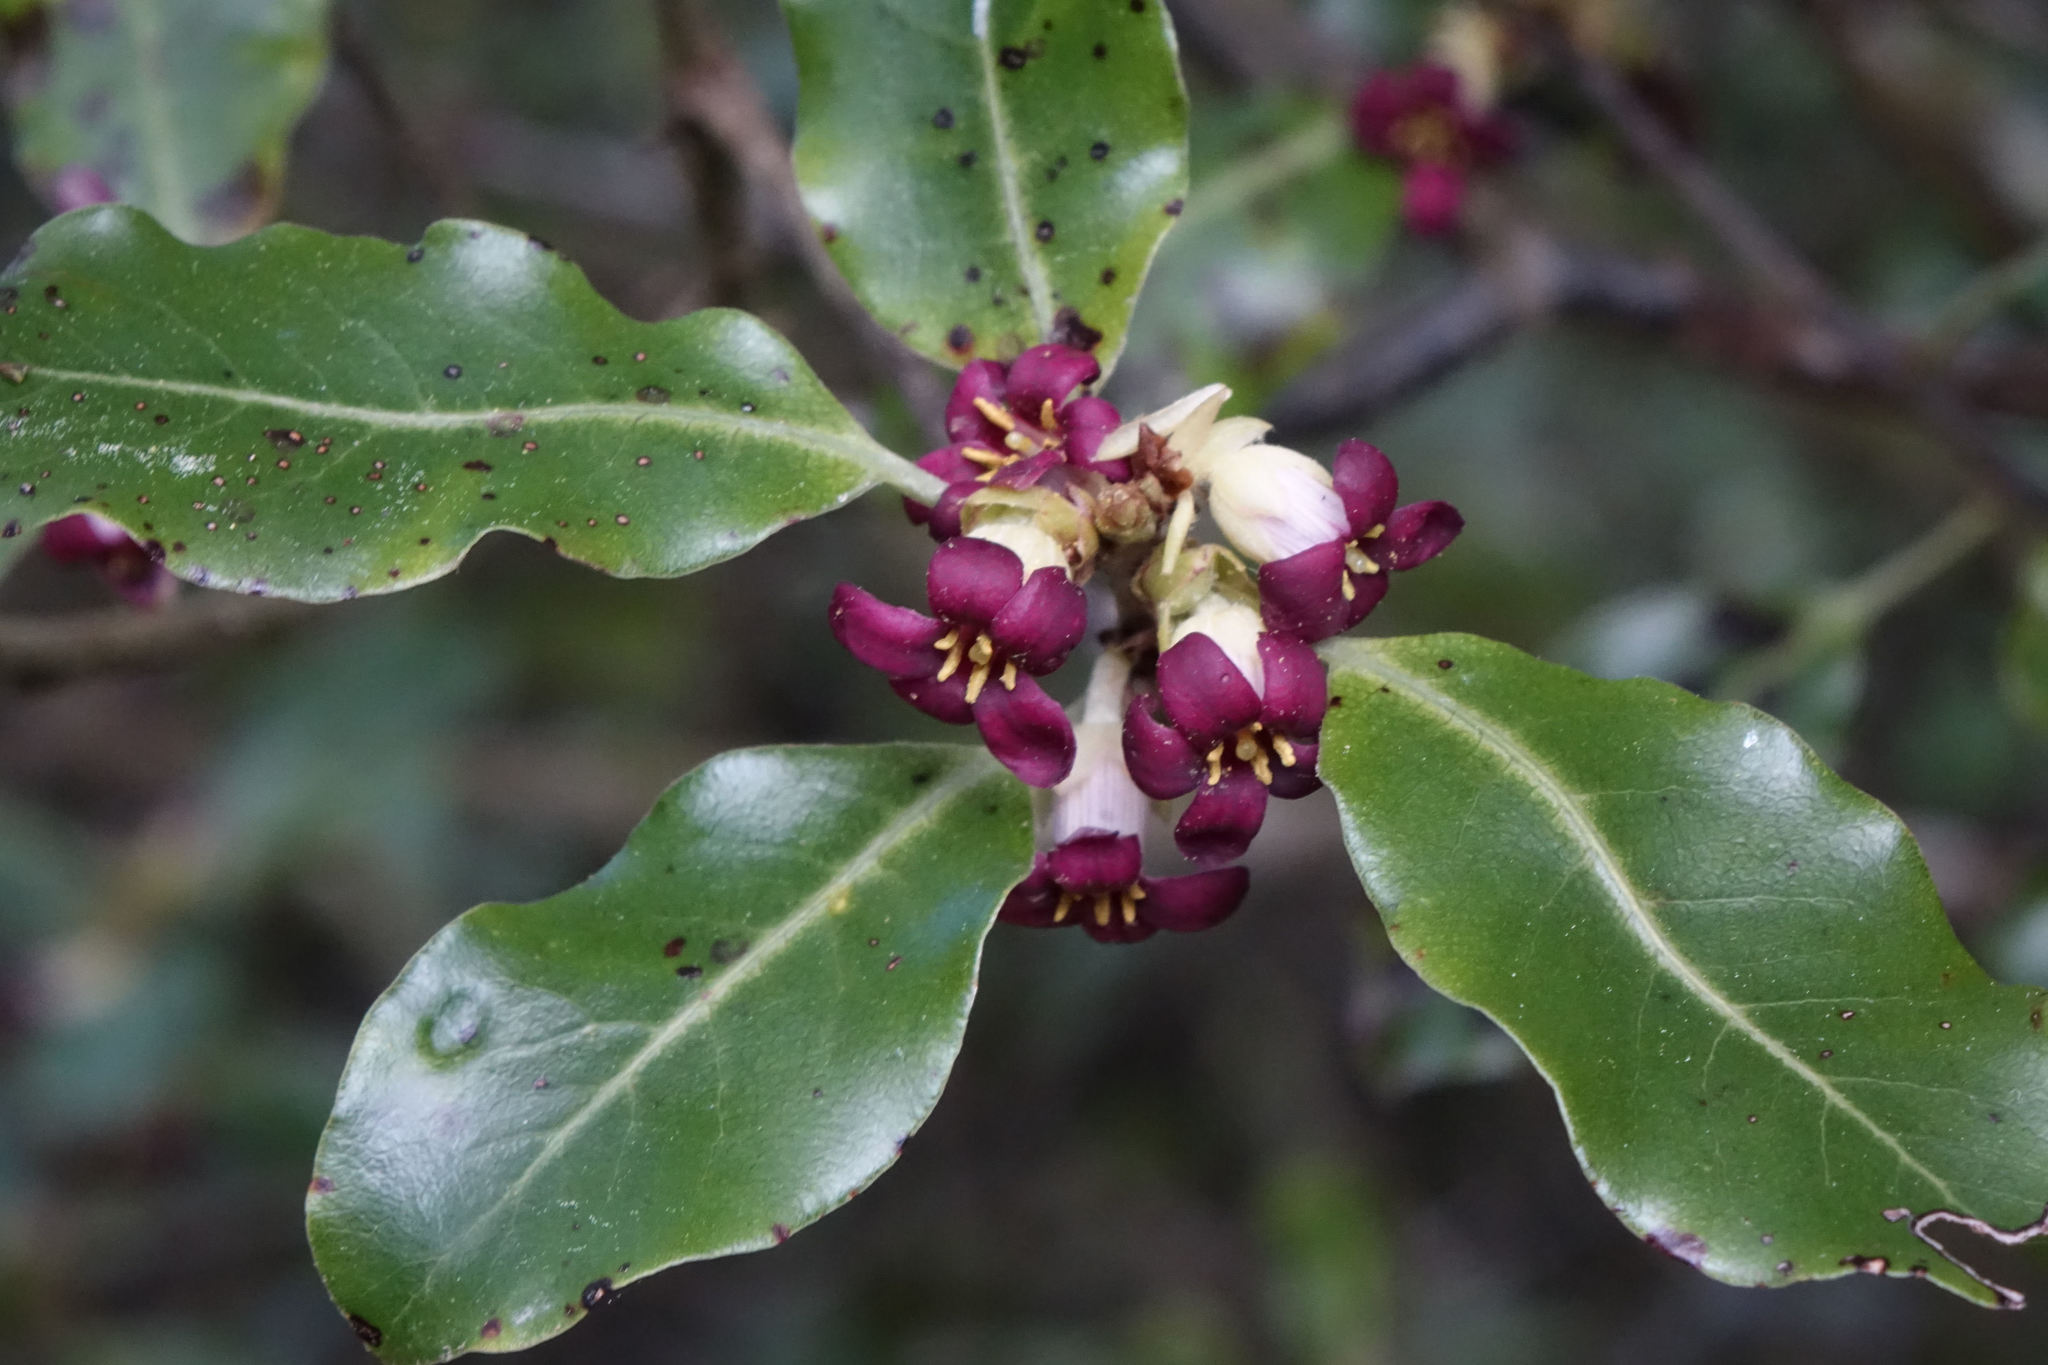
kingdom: Plantae
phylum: Tracheophyta
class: Magnoliopsida
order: Apiales
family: Pittosporaceae
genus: Pittosporum
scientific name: Pittosporum tenuifolium
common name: Kohuhu
